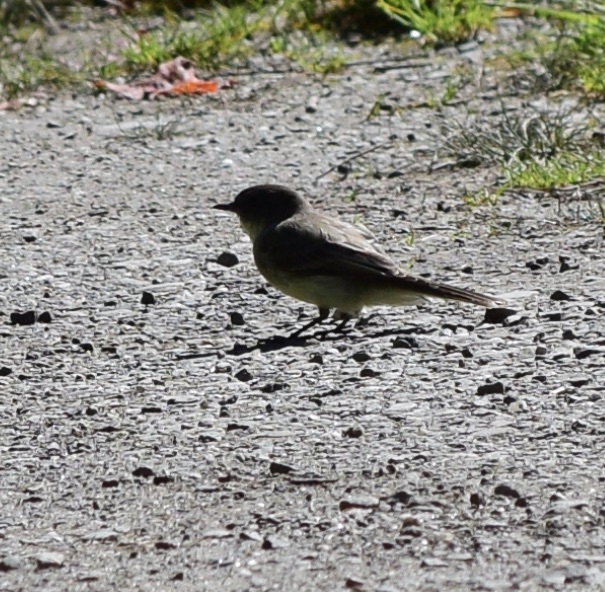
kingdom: Animalia
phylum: Chordata
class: Aves
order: Passeriformes
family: Tyrannidae
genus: Sayornis
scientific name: Sayornis phoebe
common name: Eastern phoebe
